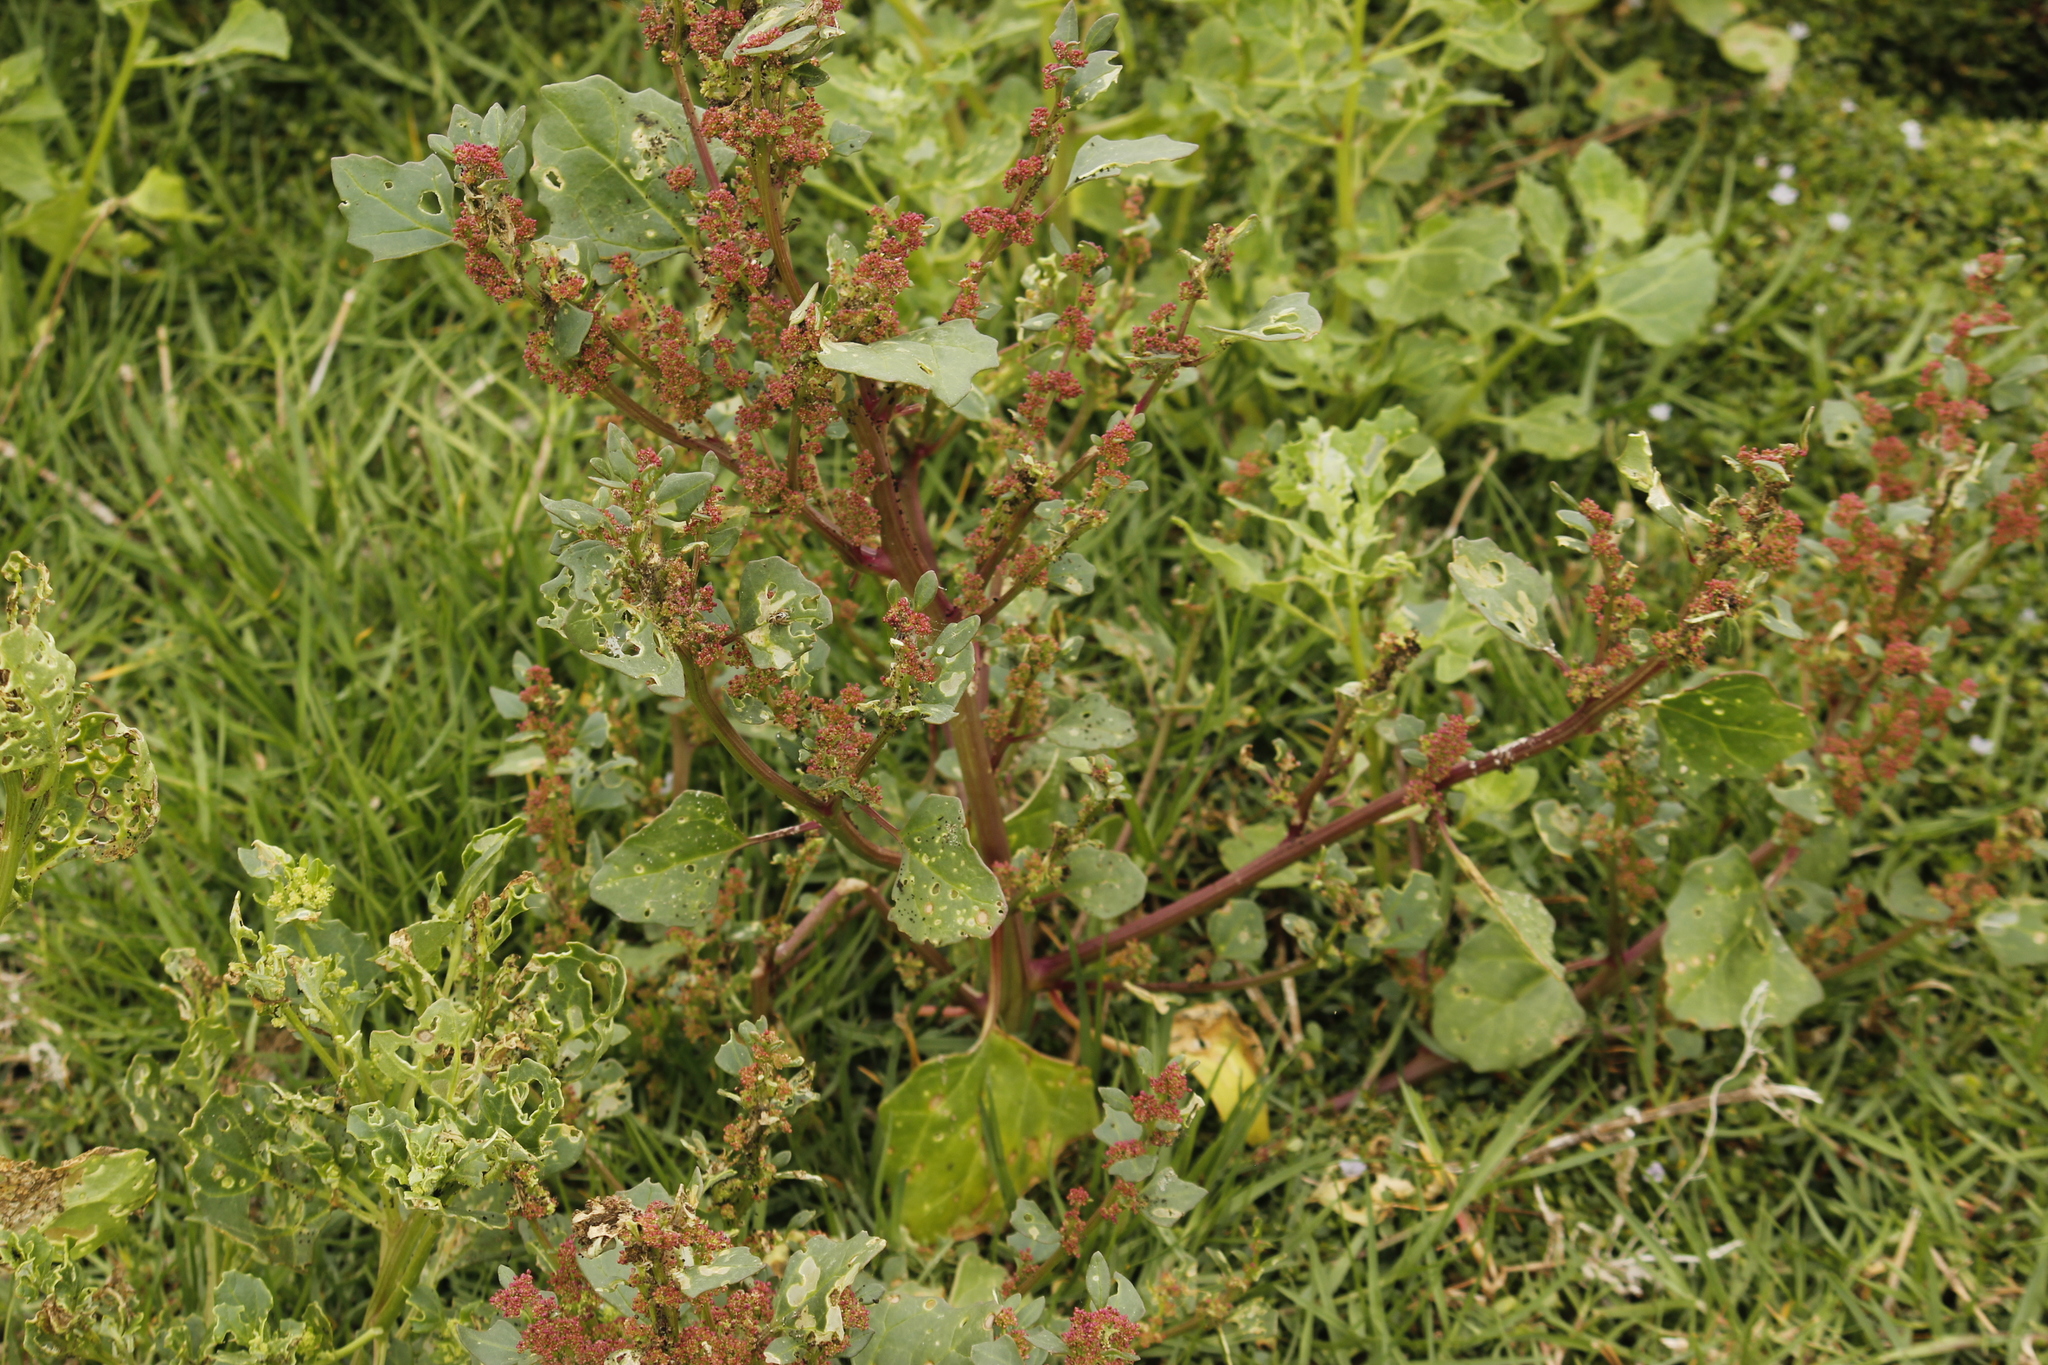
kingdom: Plantae
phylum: Tracheophyta
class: Magnoliopsida
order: Caryophyllales
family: Amaranthaceae
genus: Oxybasis
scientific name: Oxybasis
